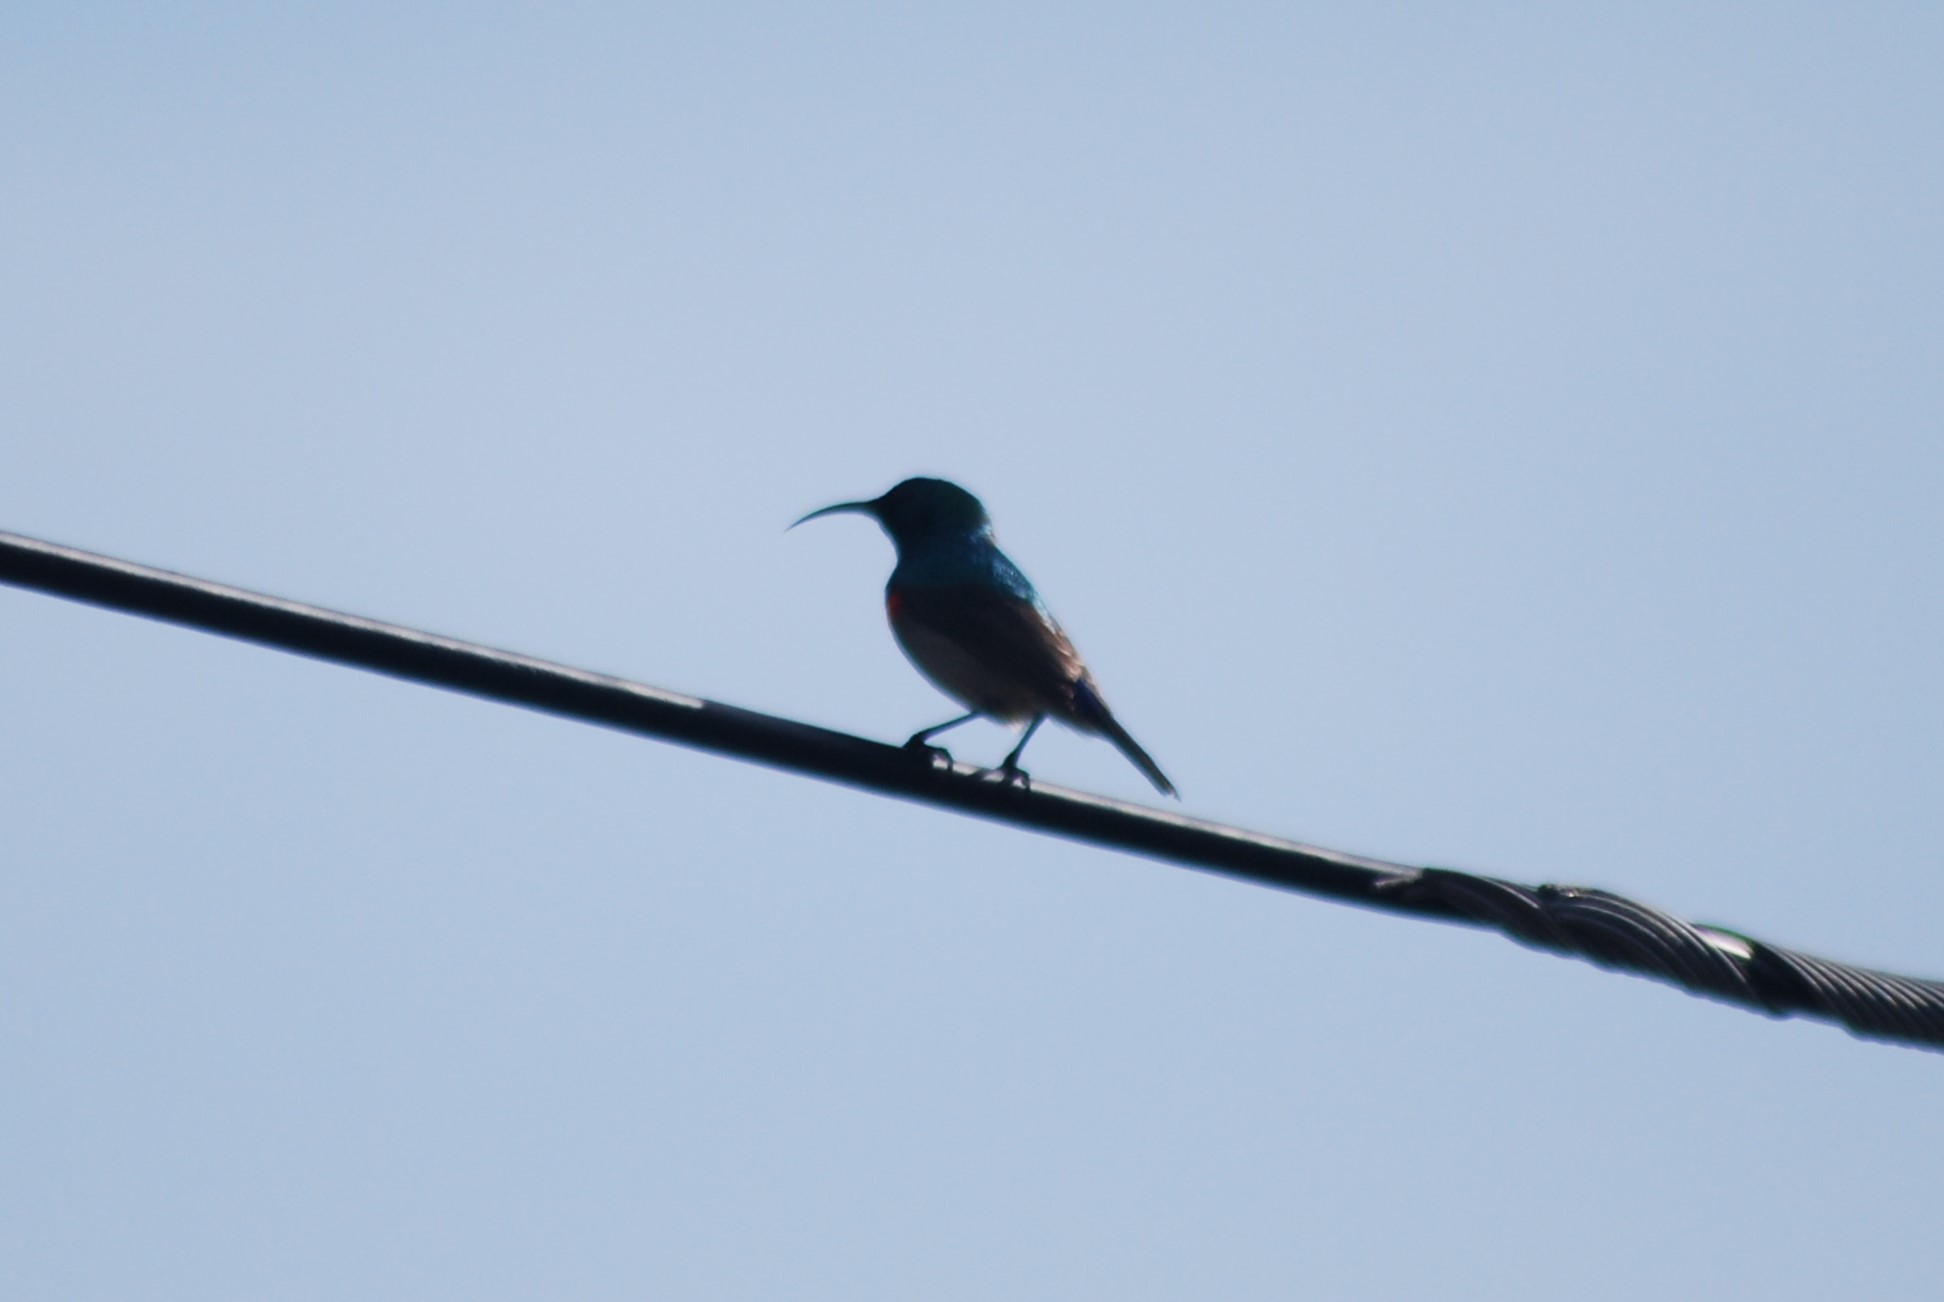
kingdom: Animalia
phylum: Chordata
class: Aves
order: Passeriformes
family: Nectariniidae
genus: Cinnyris
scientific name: Cinnyris chalybeus
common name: Southern double-collared sunbird
